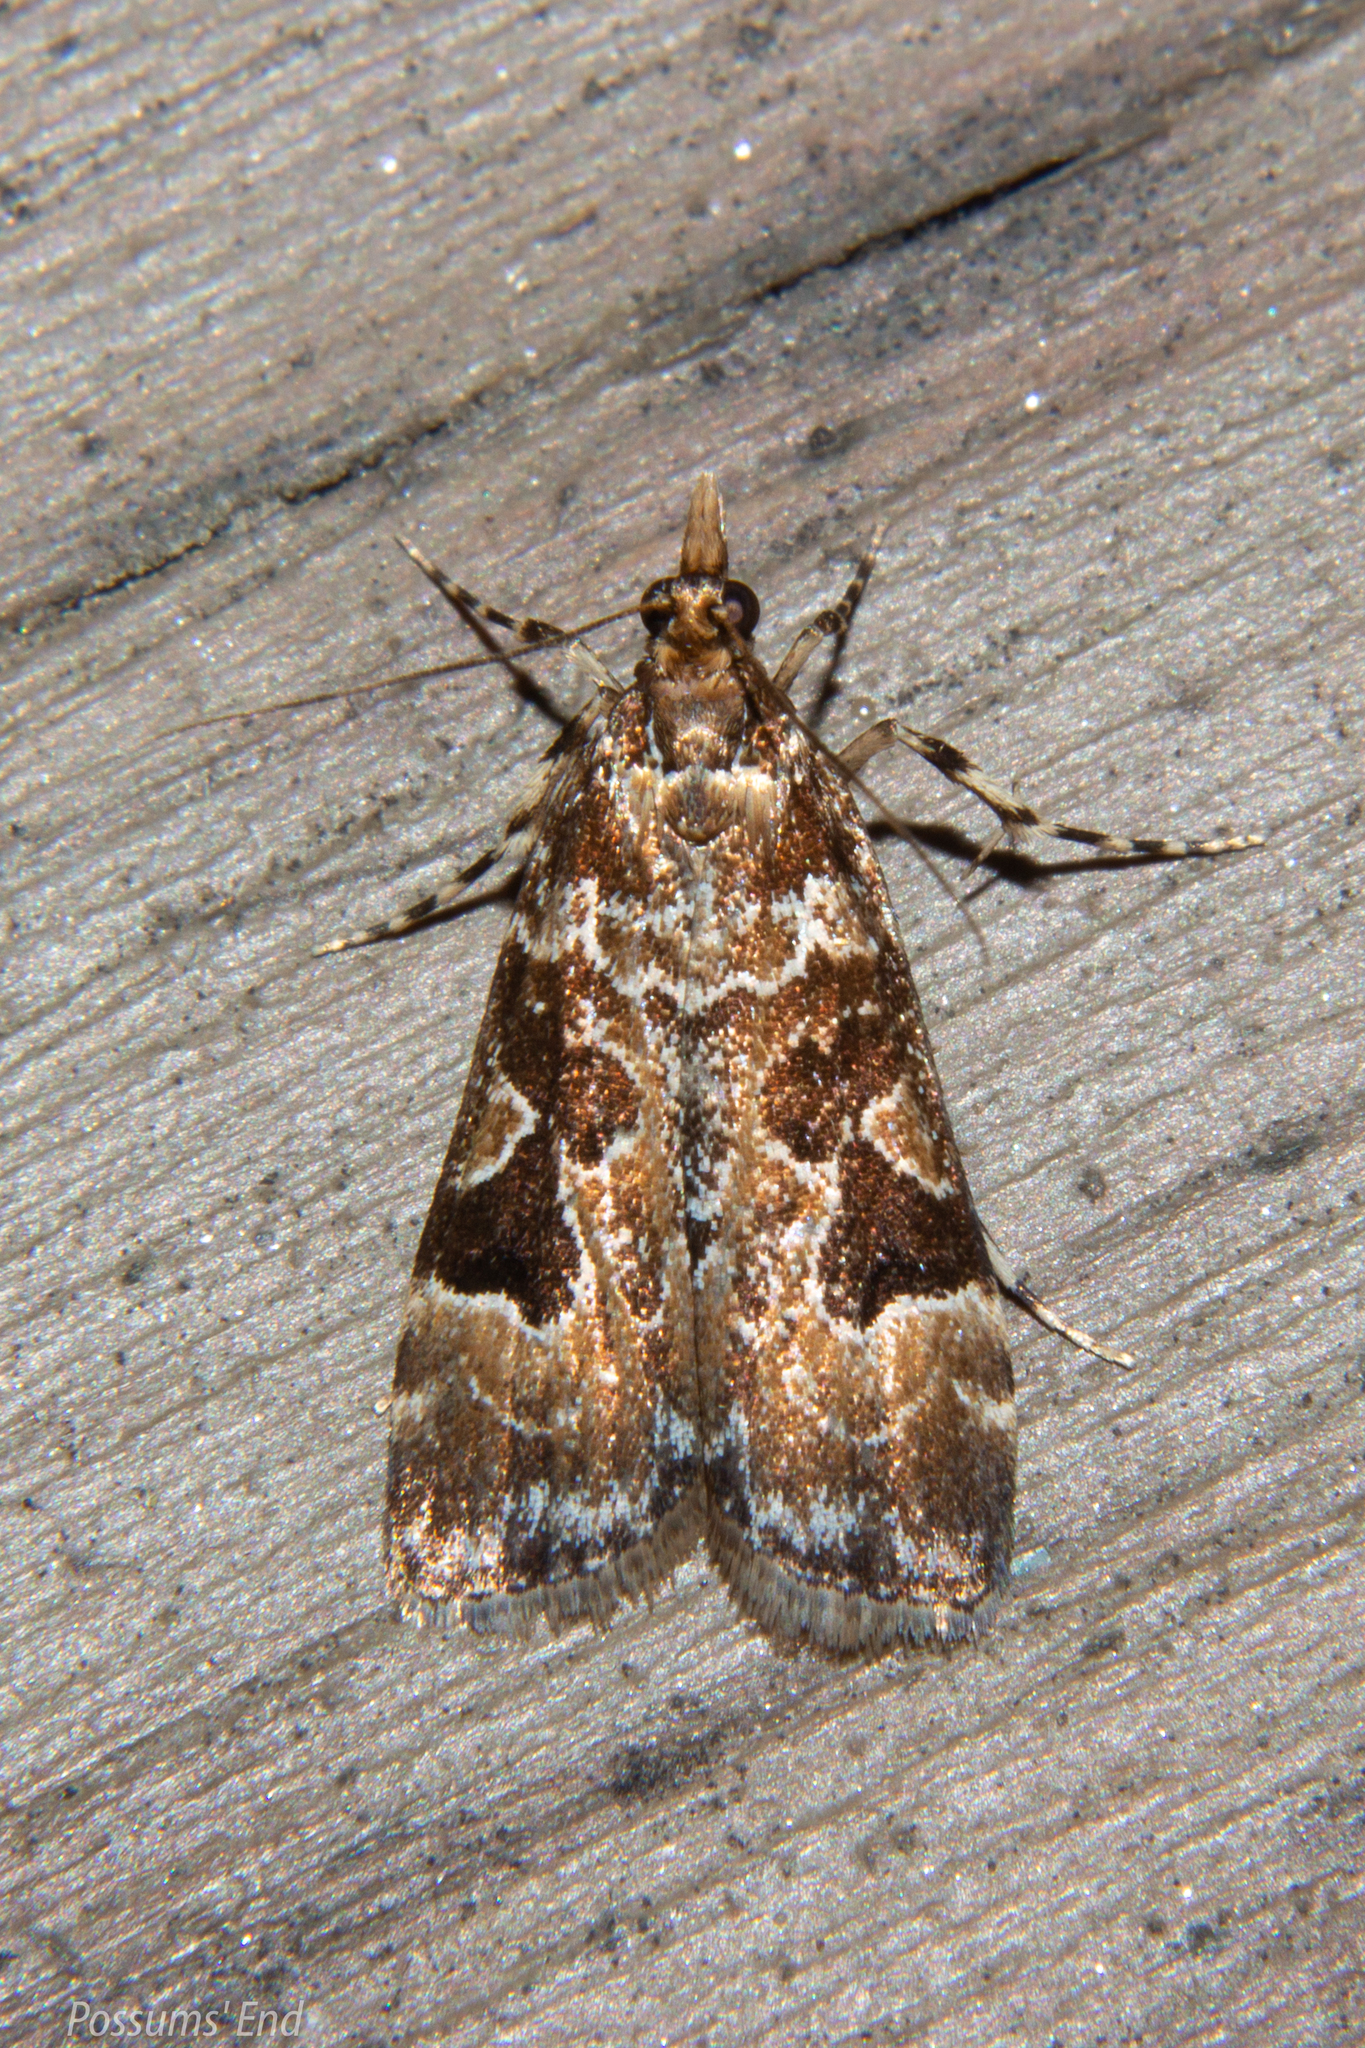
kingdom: Animalia
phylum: Arthropoda
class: Insecta
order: Lepidoptera
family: Crambidae
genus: Scoparia
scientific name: Scoparia ustimacula
